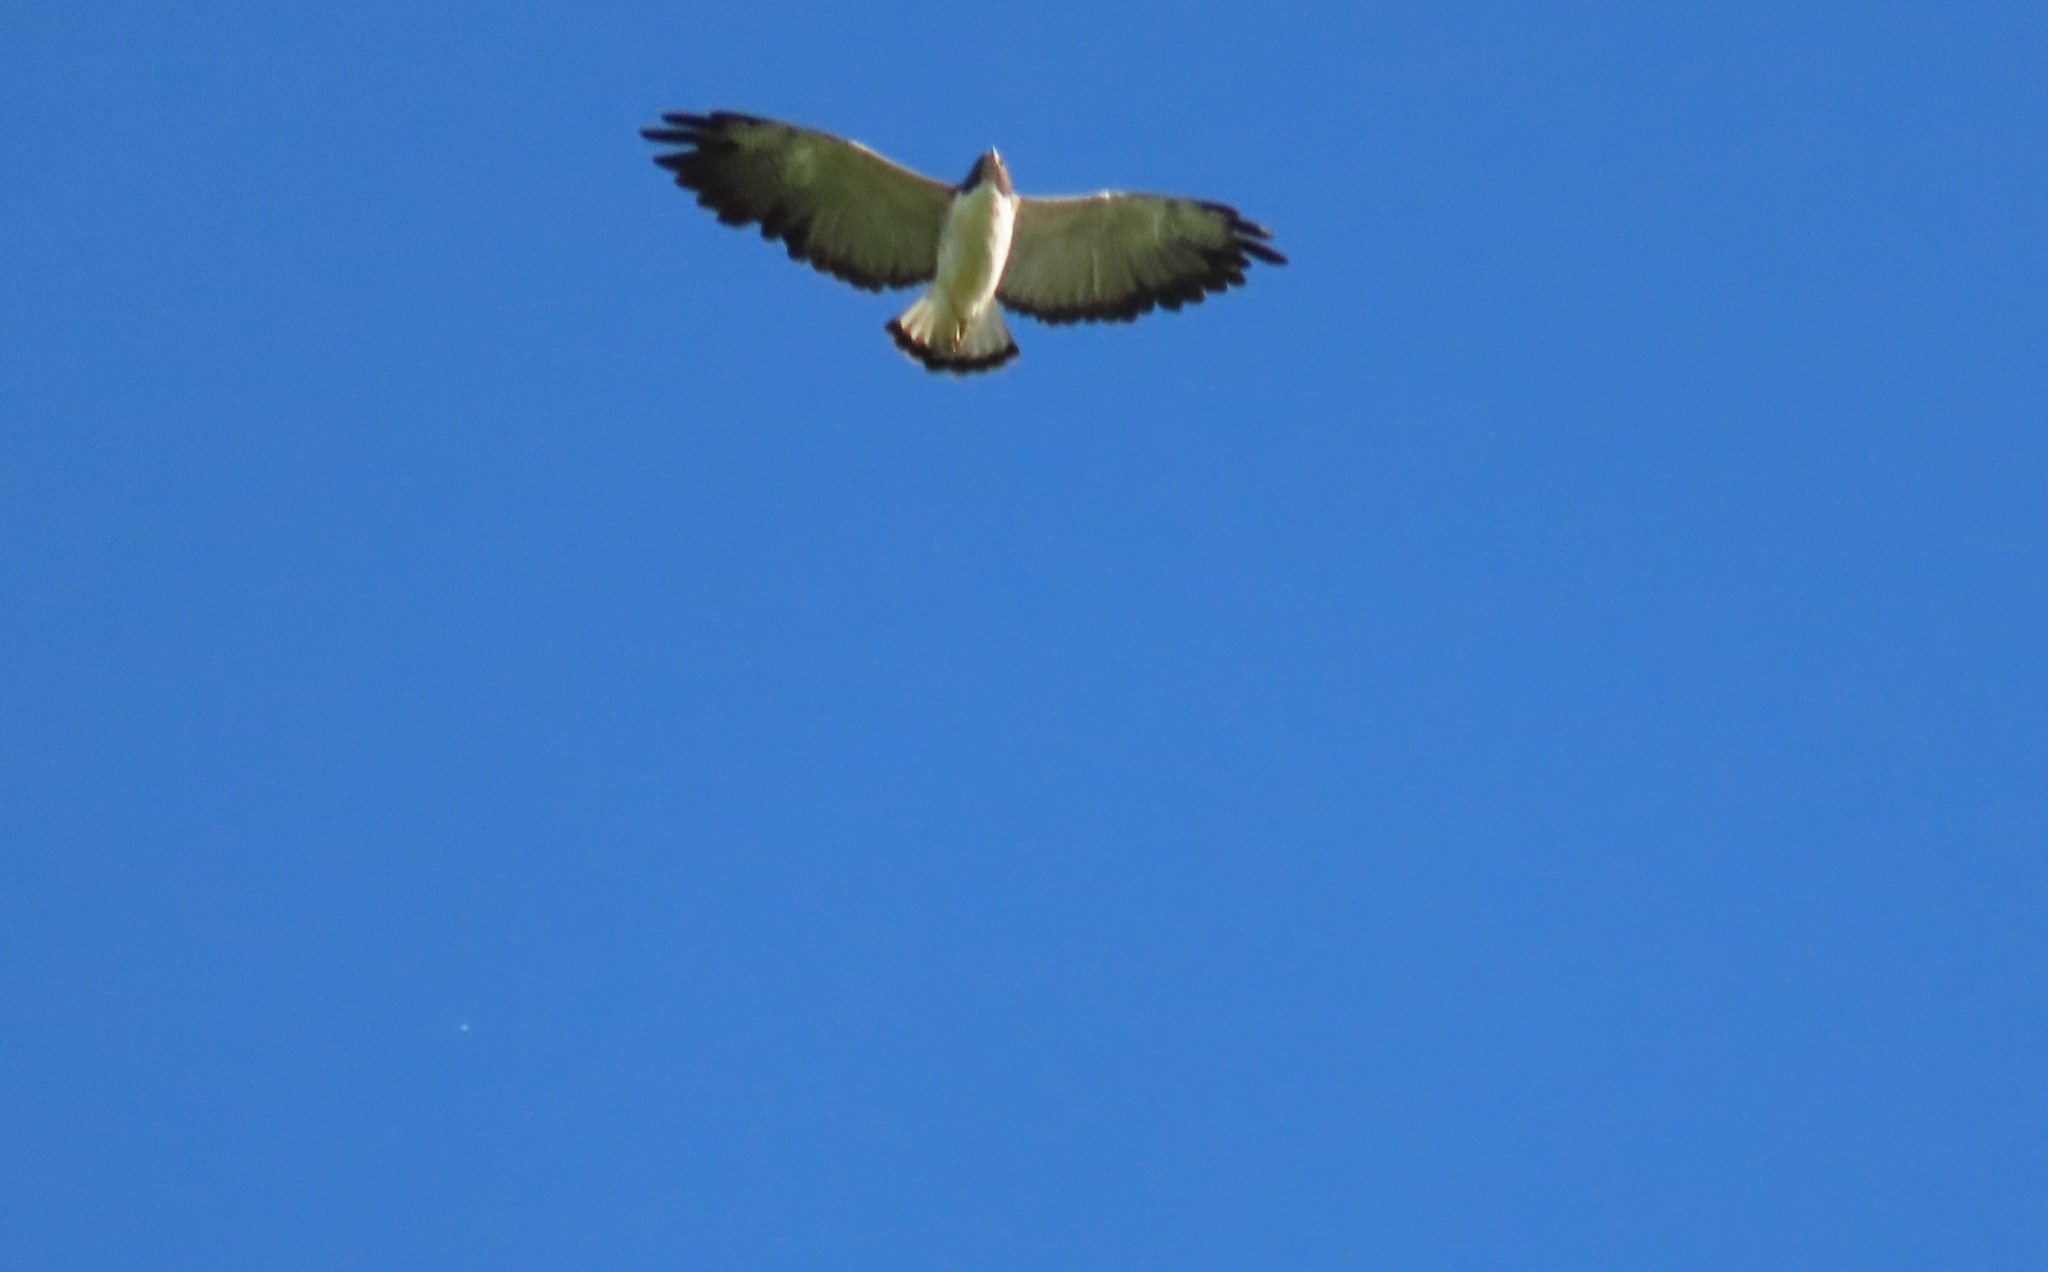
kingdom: Animalia
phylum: Chordata
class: Aves
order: Accipitriformes
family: Accipitridae
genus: Buteo
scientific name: Buteo albicaudatus
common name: White-tailed hawk
